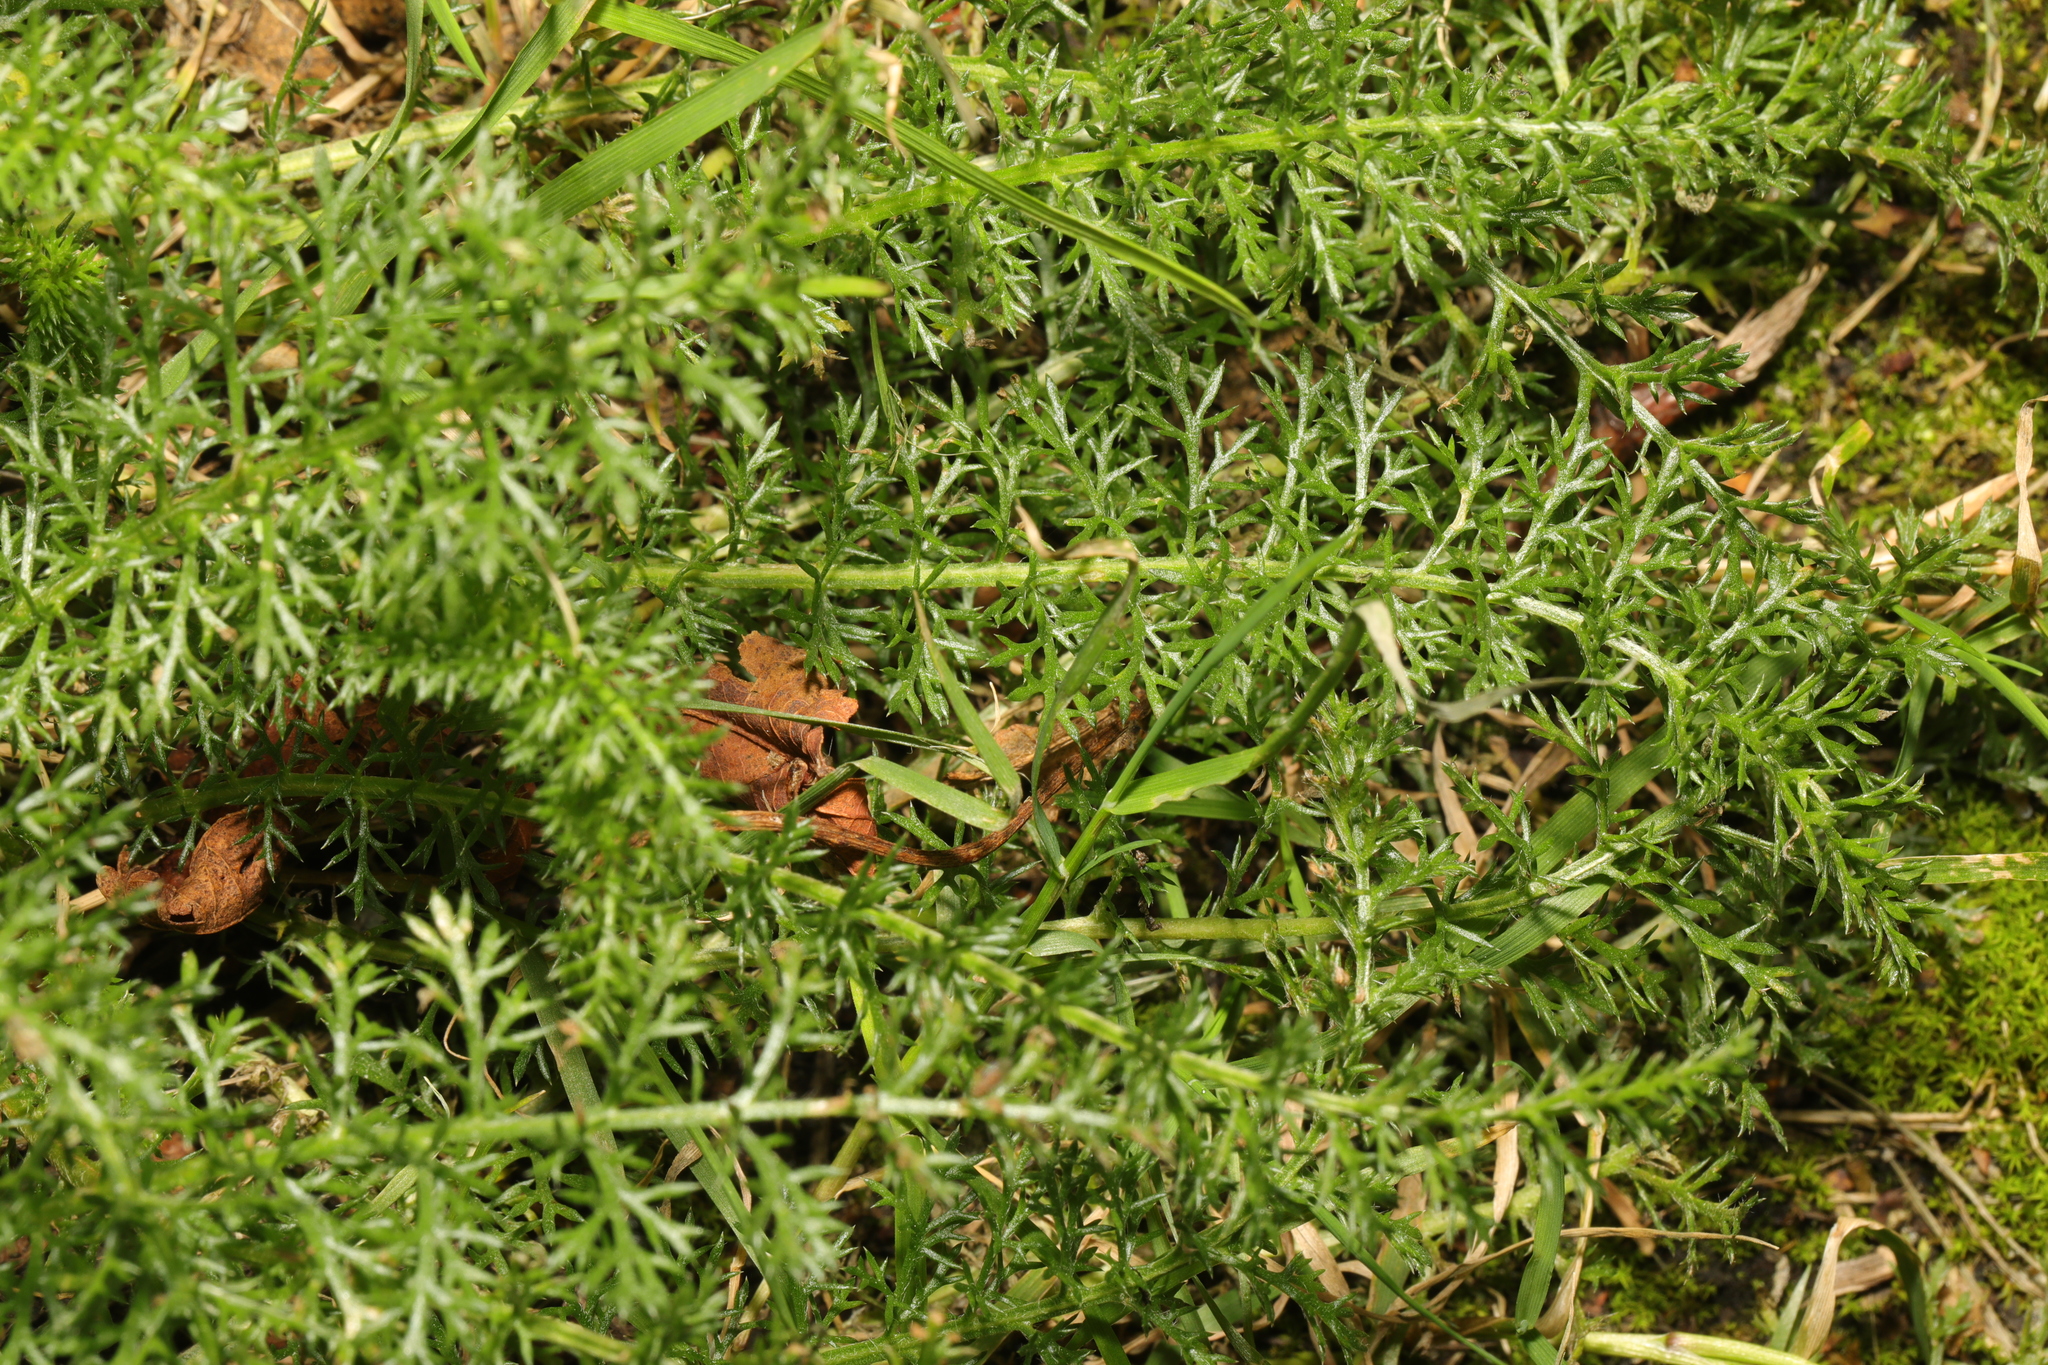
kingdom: Plantae
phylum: Tracheophyta
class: Magnoliopsida
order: Asterales
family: Asteraceae
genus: Achillea
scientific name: Achillea millefolium
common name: Yarrow
